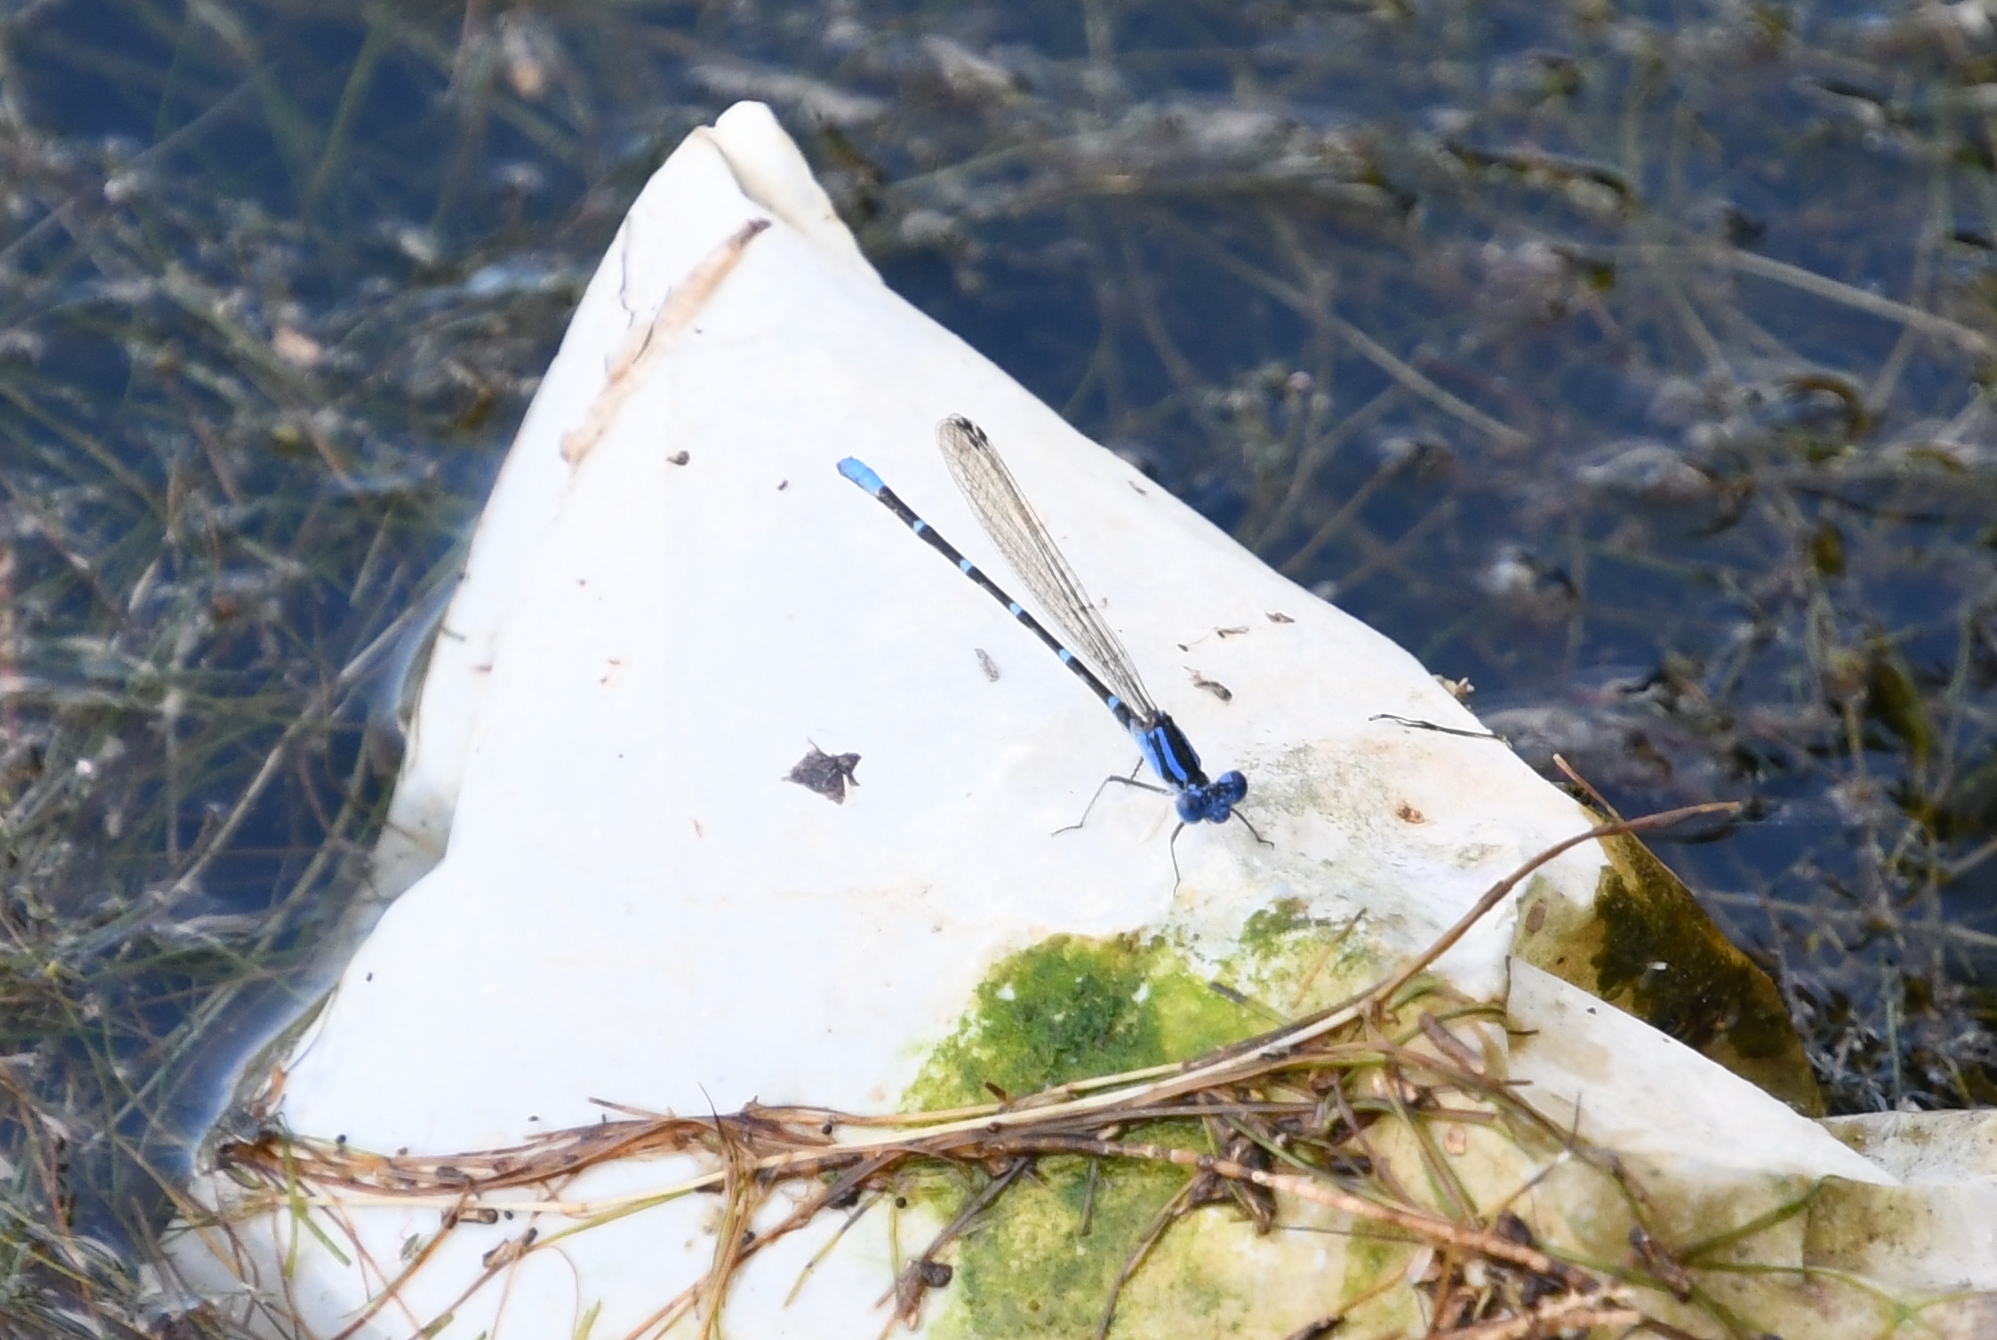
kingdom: Animalia
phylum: Arthropoda
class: Insecta
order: Odonata
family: Coenagrionidae
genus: Argia
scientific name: Argia sedula
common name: Blue-ringed dancer
